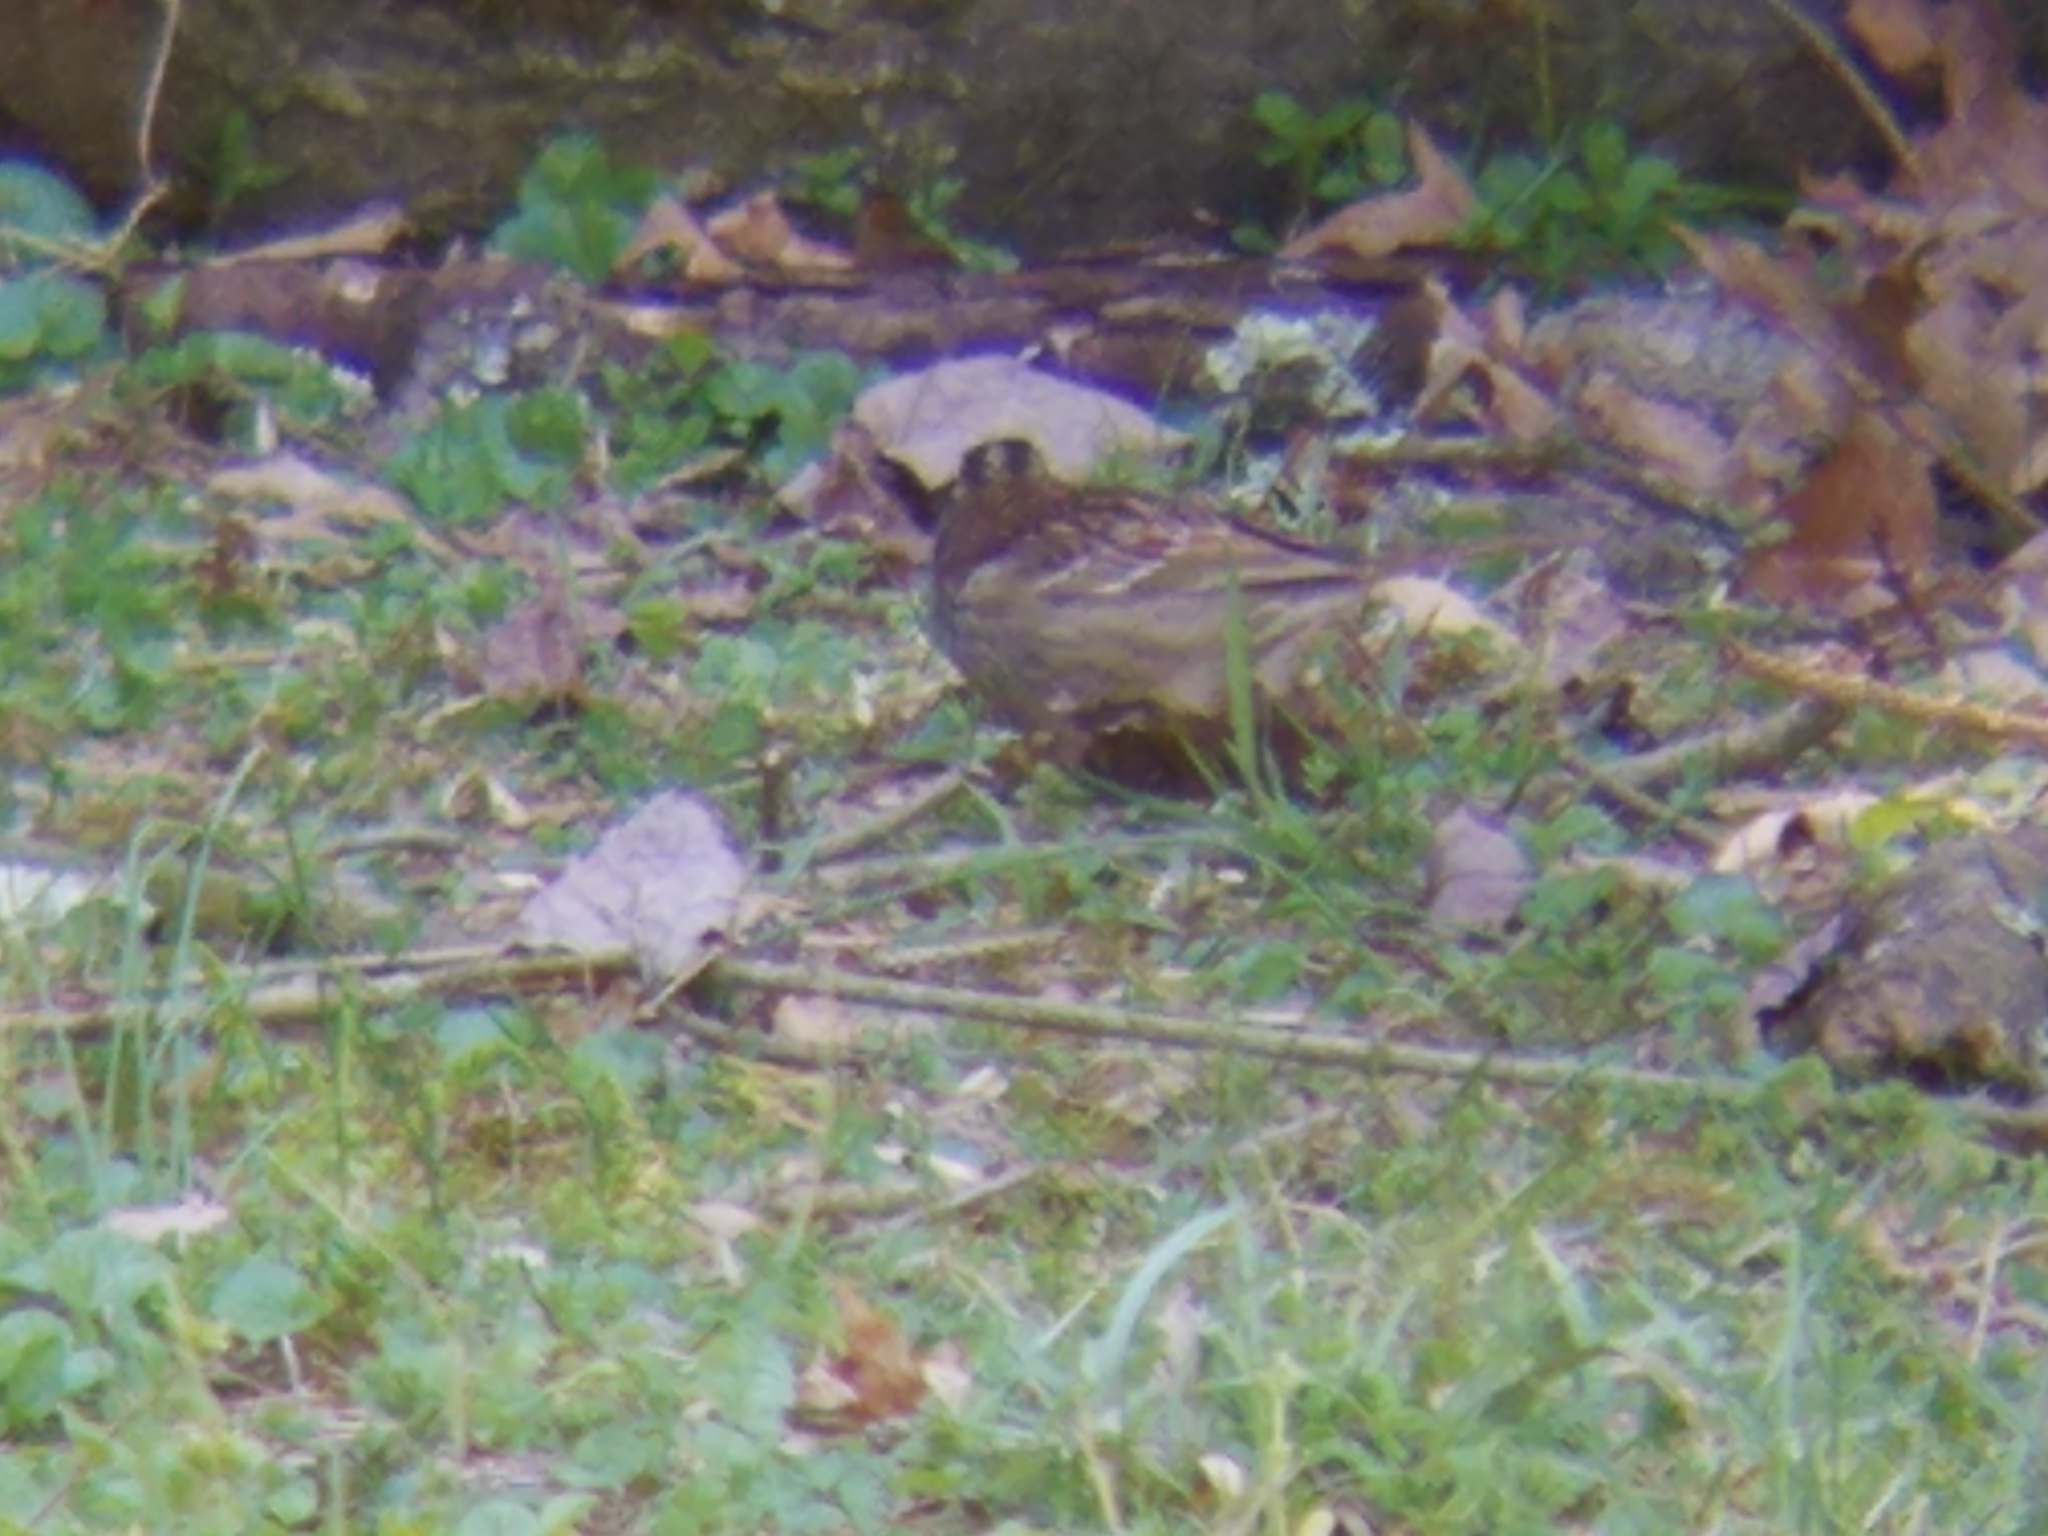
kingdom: Animalia
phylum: Chordata
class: Aves
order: Passeriformes
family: Passerellidae
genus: Zonotrichia
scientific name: Zonotrichia albicollis
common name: White-throated sparrow
